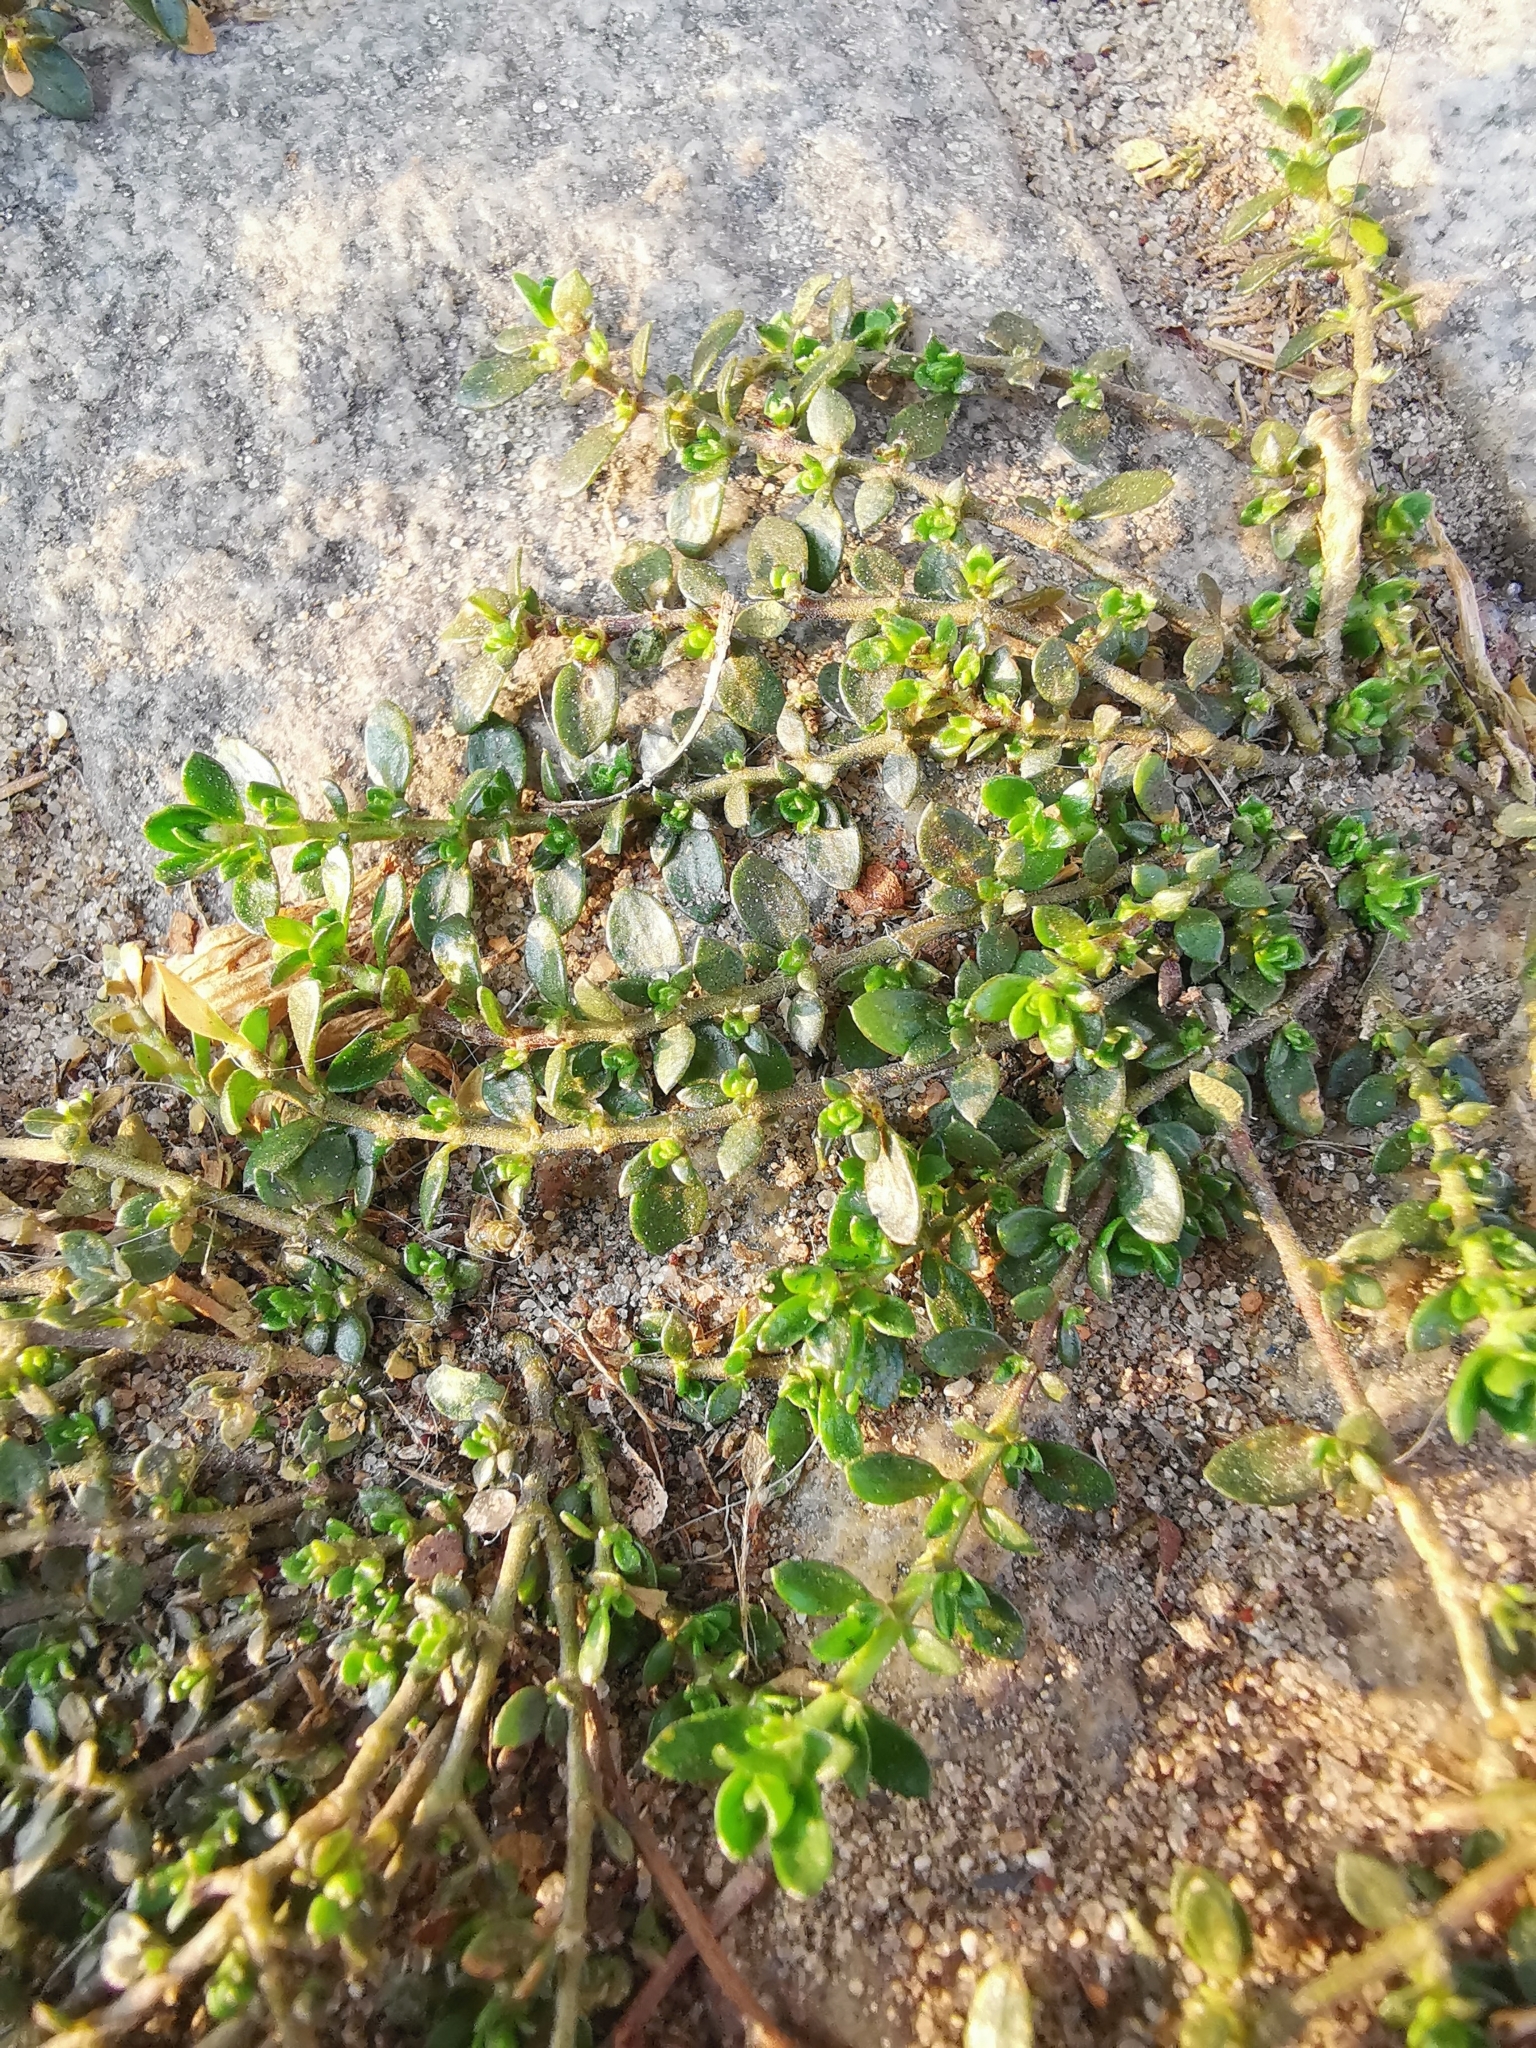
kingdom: Plantae
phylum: Tracheophyta
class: Magnoliopsida
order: Caryophyllales
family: Caryophyllaceae
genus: Herniaria
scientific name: Herniaria glabra
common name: Smooth rupturewort
